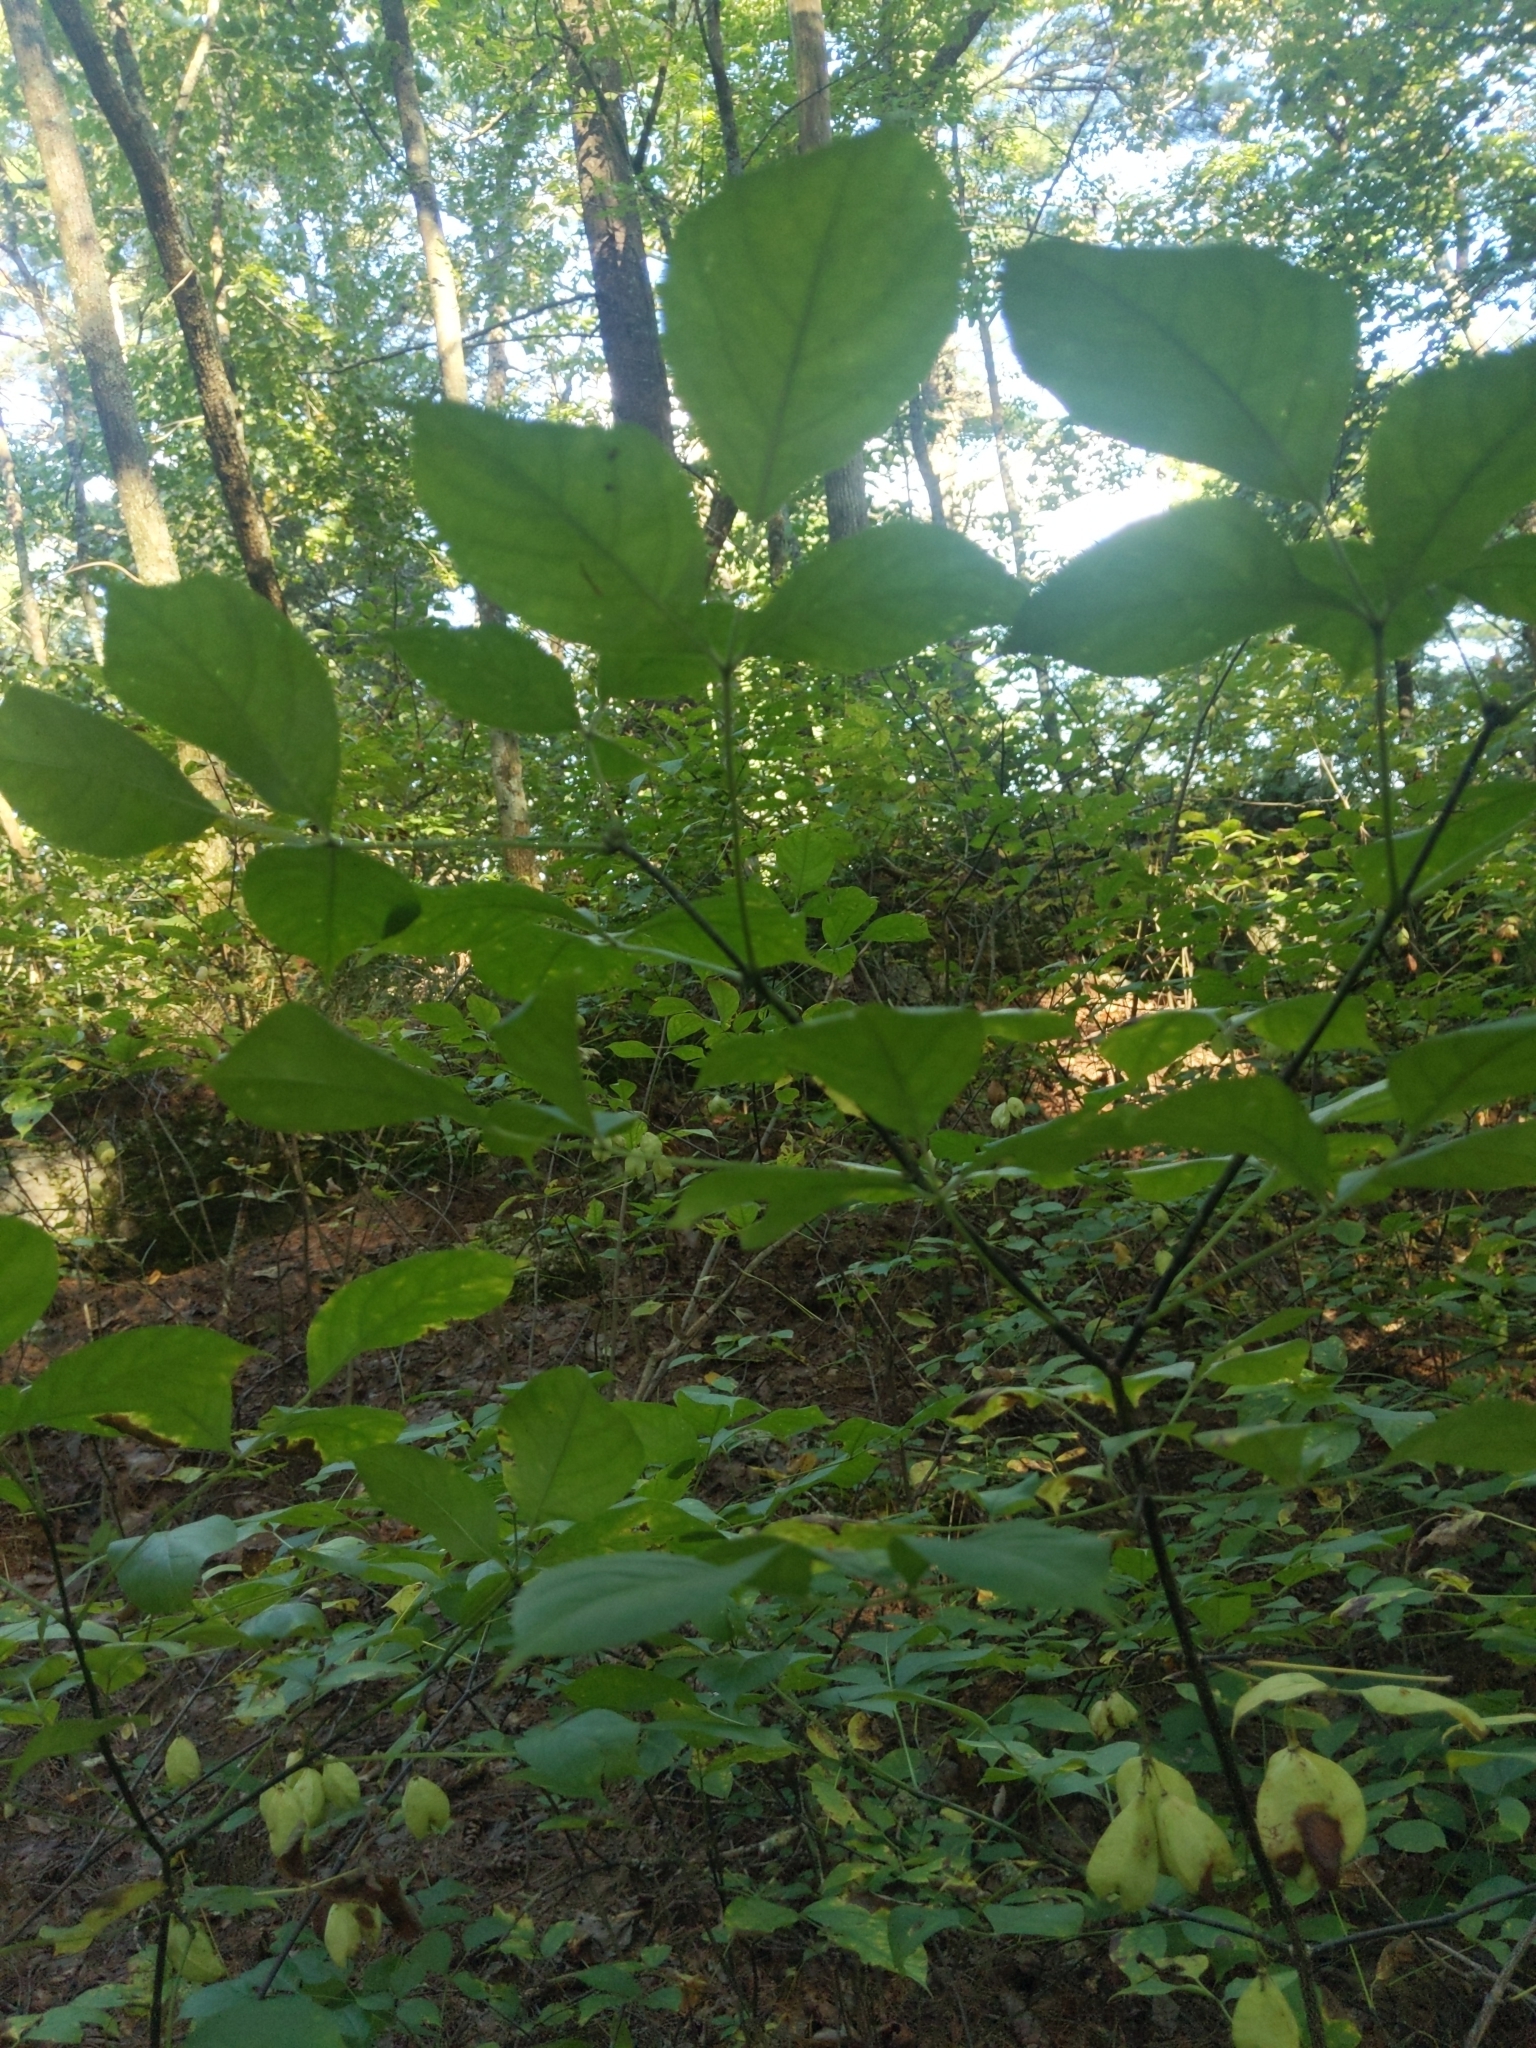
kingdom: Plantae
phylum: Tracheophyta
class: Magnoliopsida
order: Crossosomatales
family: Staphyleaceae
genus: Staphylea
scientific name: Staphylea trifolia
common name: American bladdernut
